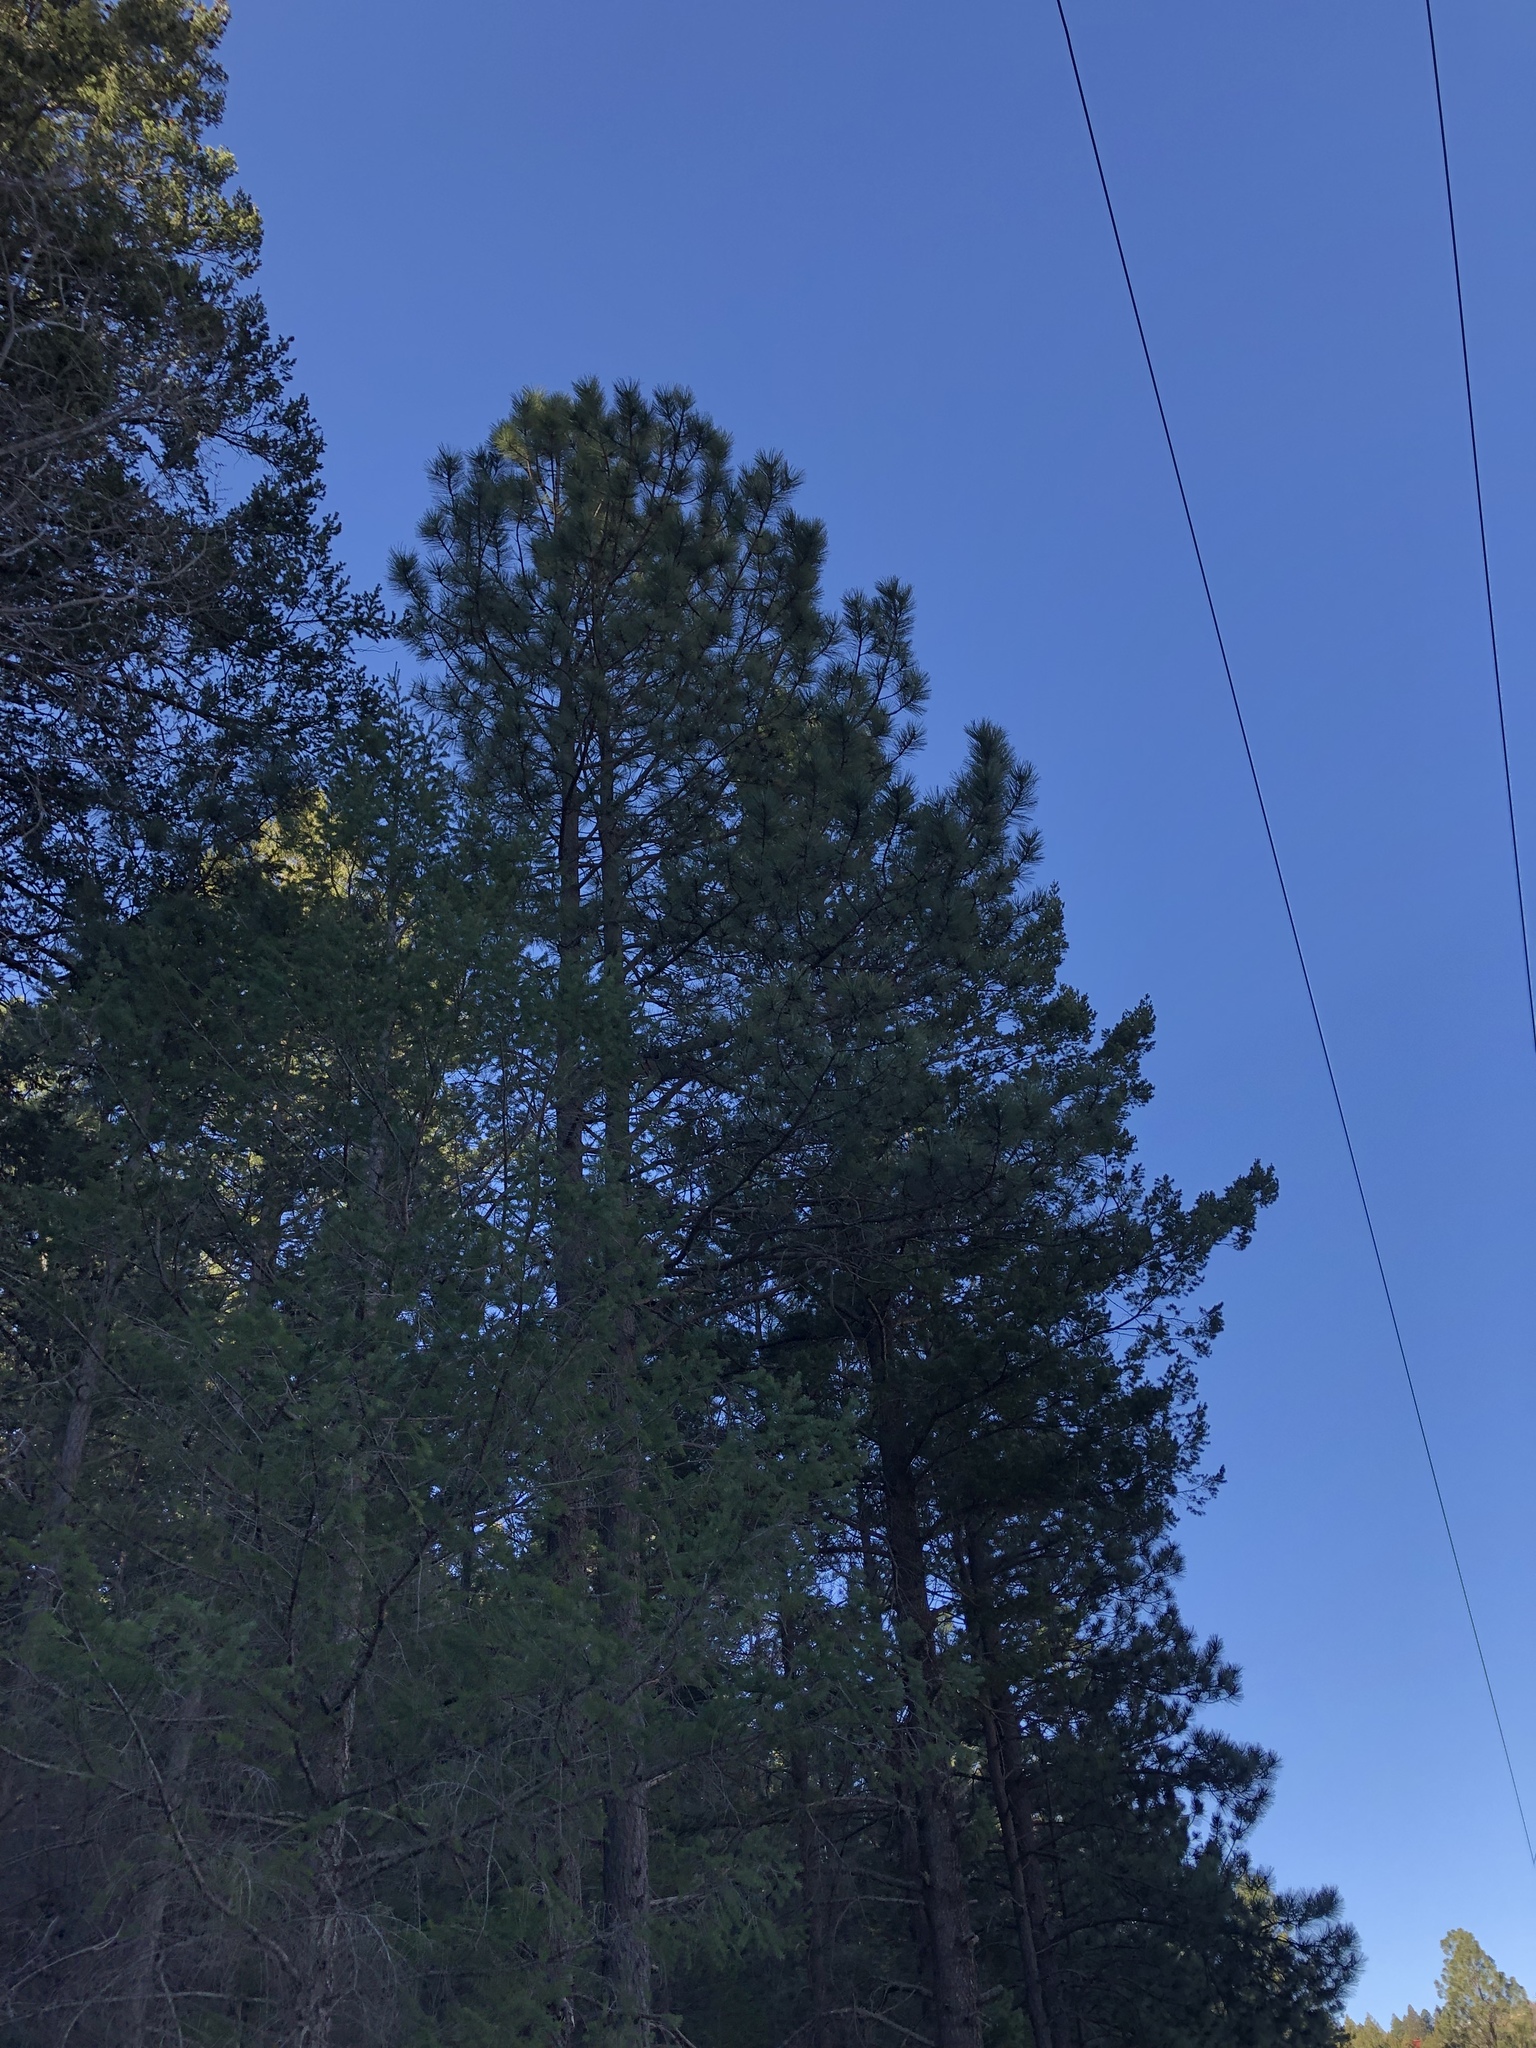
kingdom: Plantae
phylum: Tracheophyta
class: Pinopsida
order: Pinales
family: Pinaceae
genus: Pinus
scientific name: Pinus ponderosa
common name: Western yellow-pine
